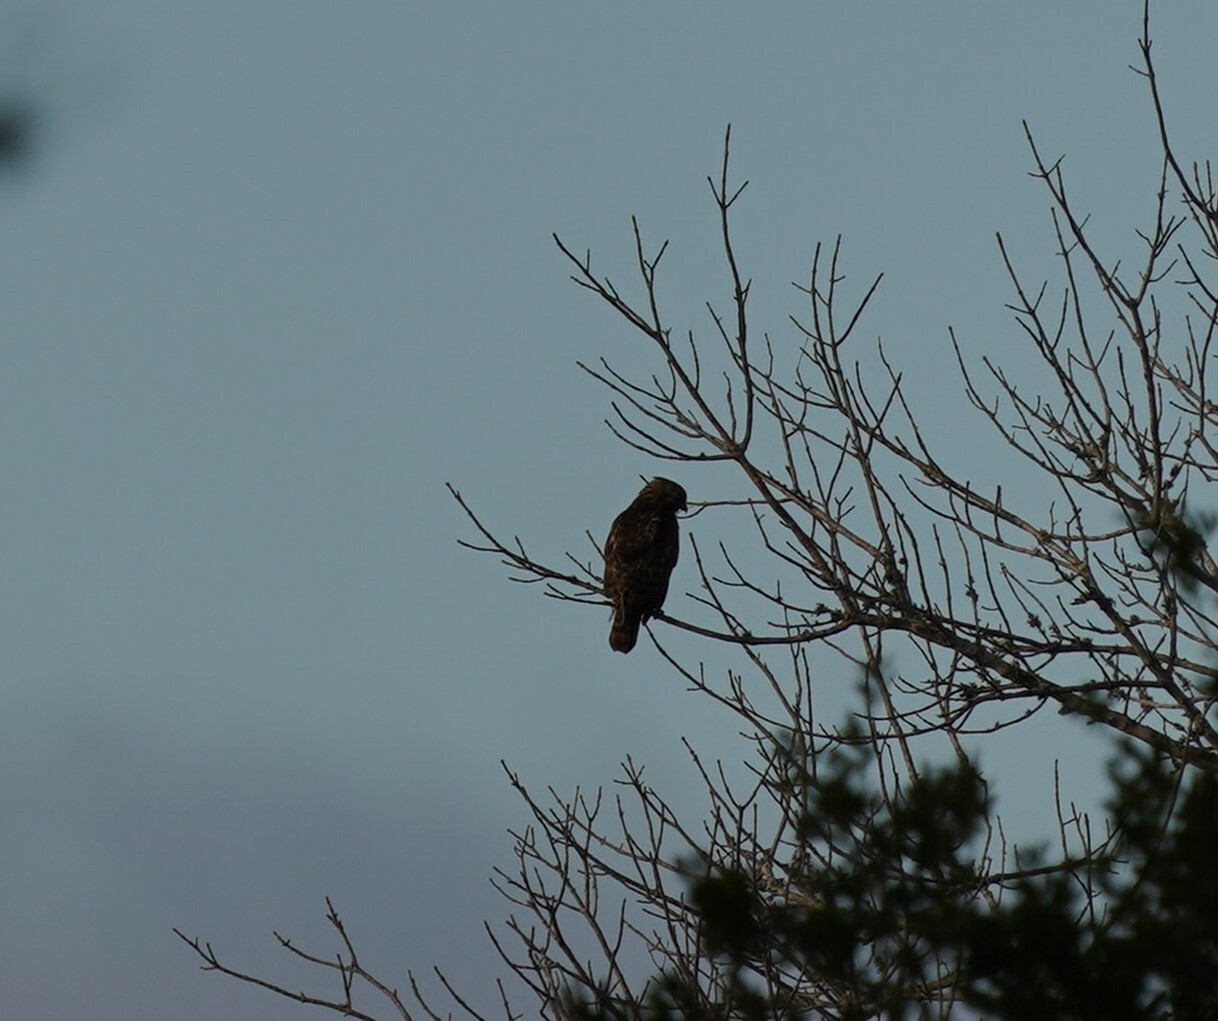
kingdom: Animalia
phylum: Chordata
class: Aves
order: Accipitriformes
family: Accipitridae
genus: Buteo
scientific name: Buteo lineatus
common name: Red-shouldered hawk
